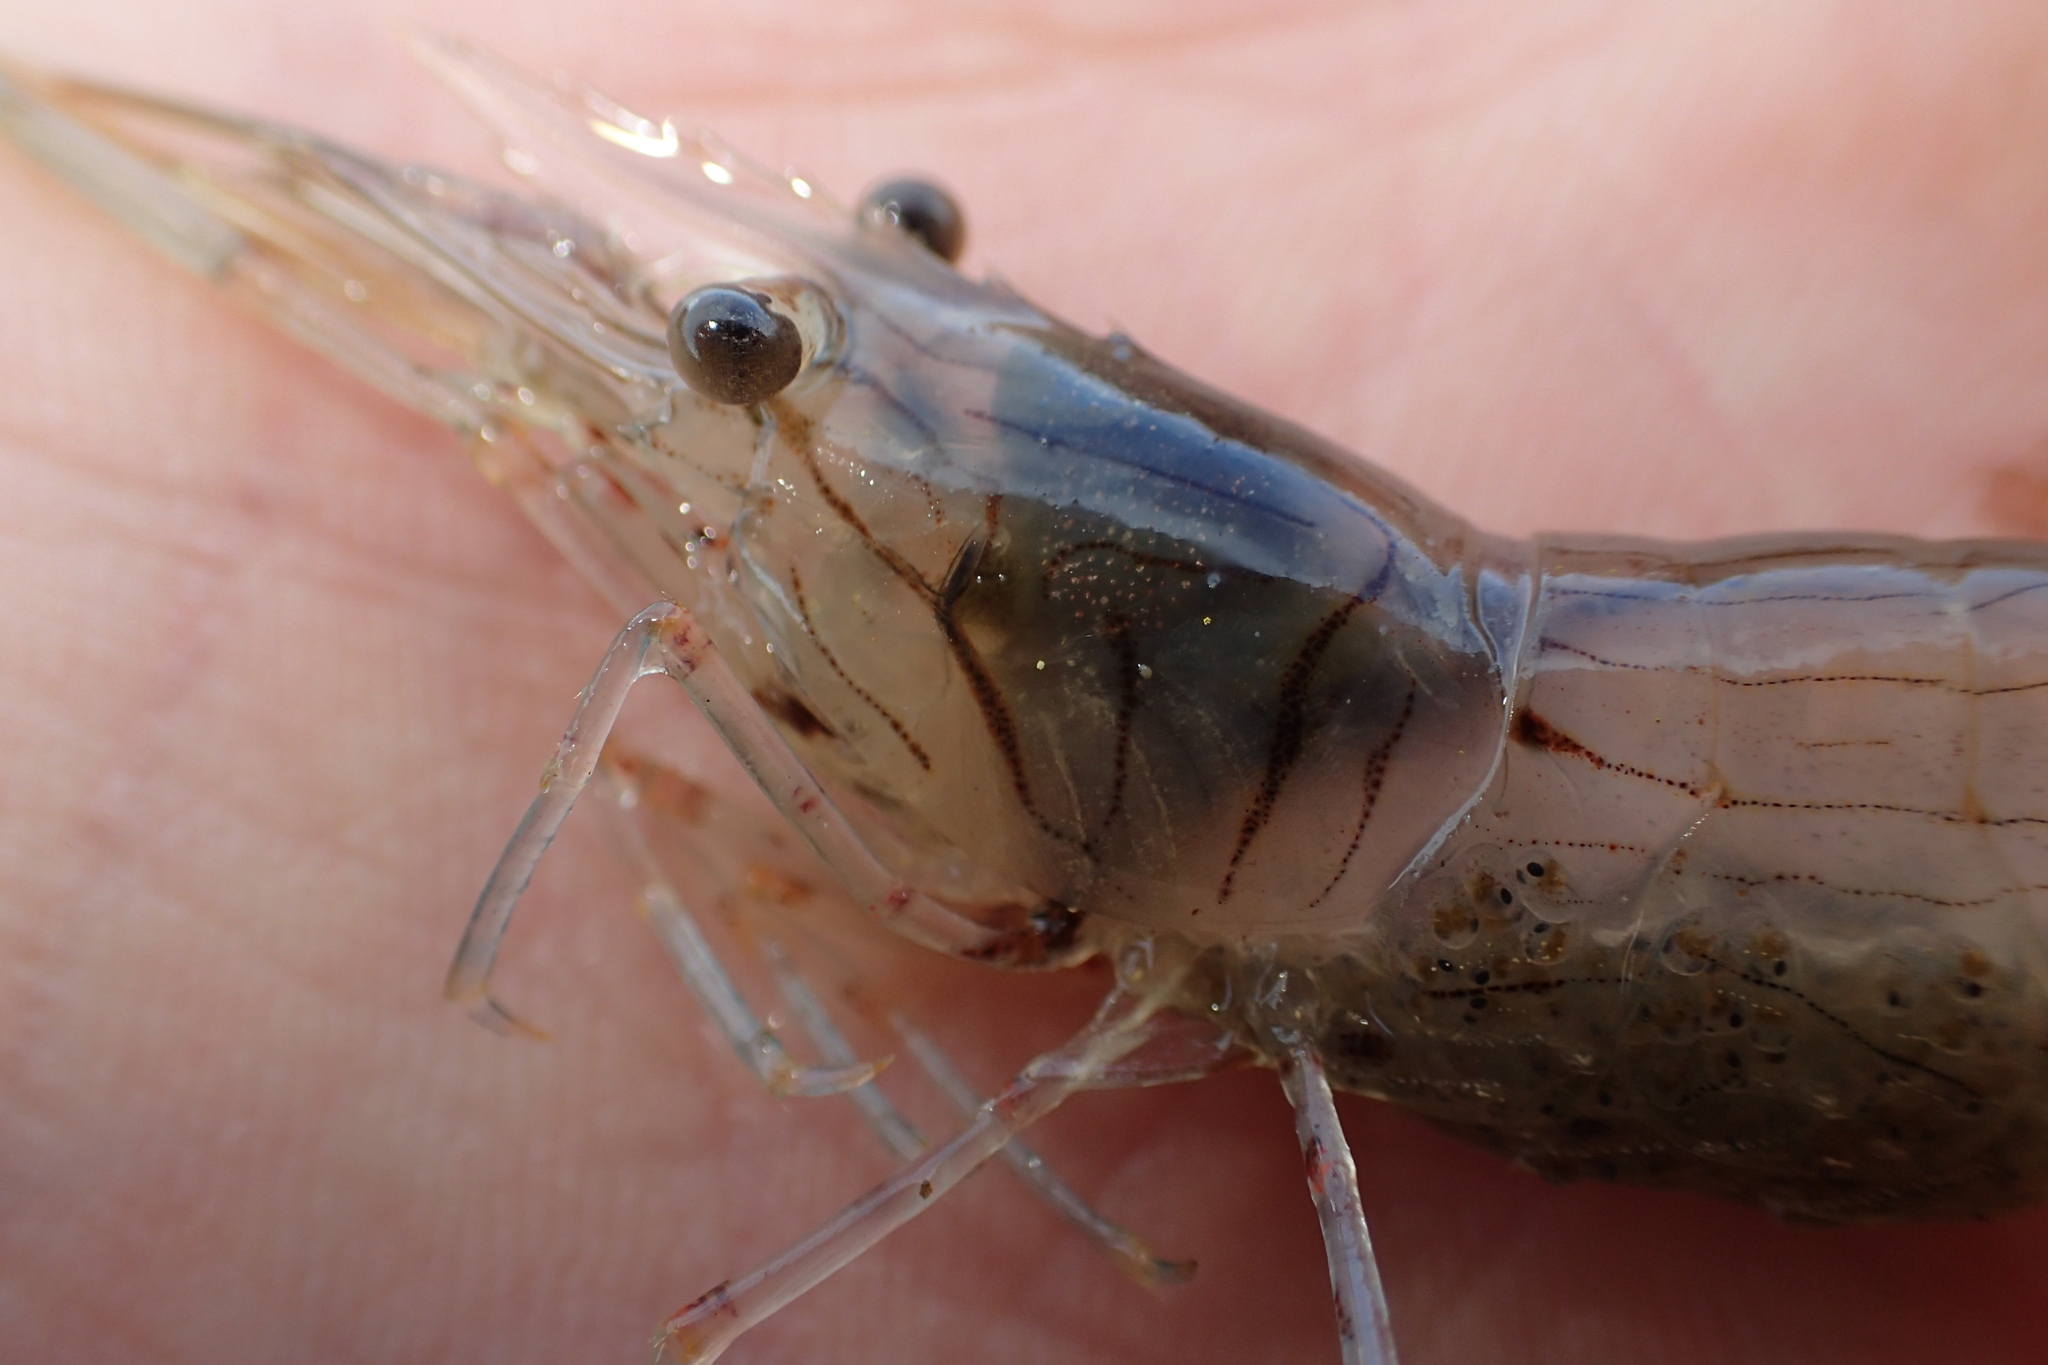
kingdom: Animalia
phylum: Arthropoda
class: Malacostraca
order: Decapoda
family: Palaemonidae
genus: Palaemon
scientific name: Palaemon affinis
